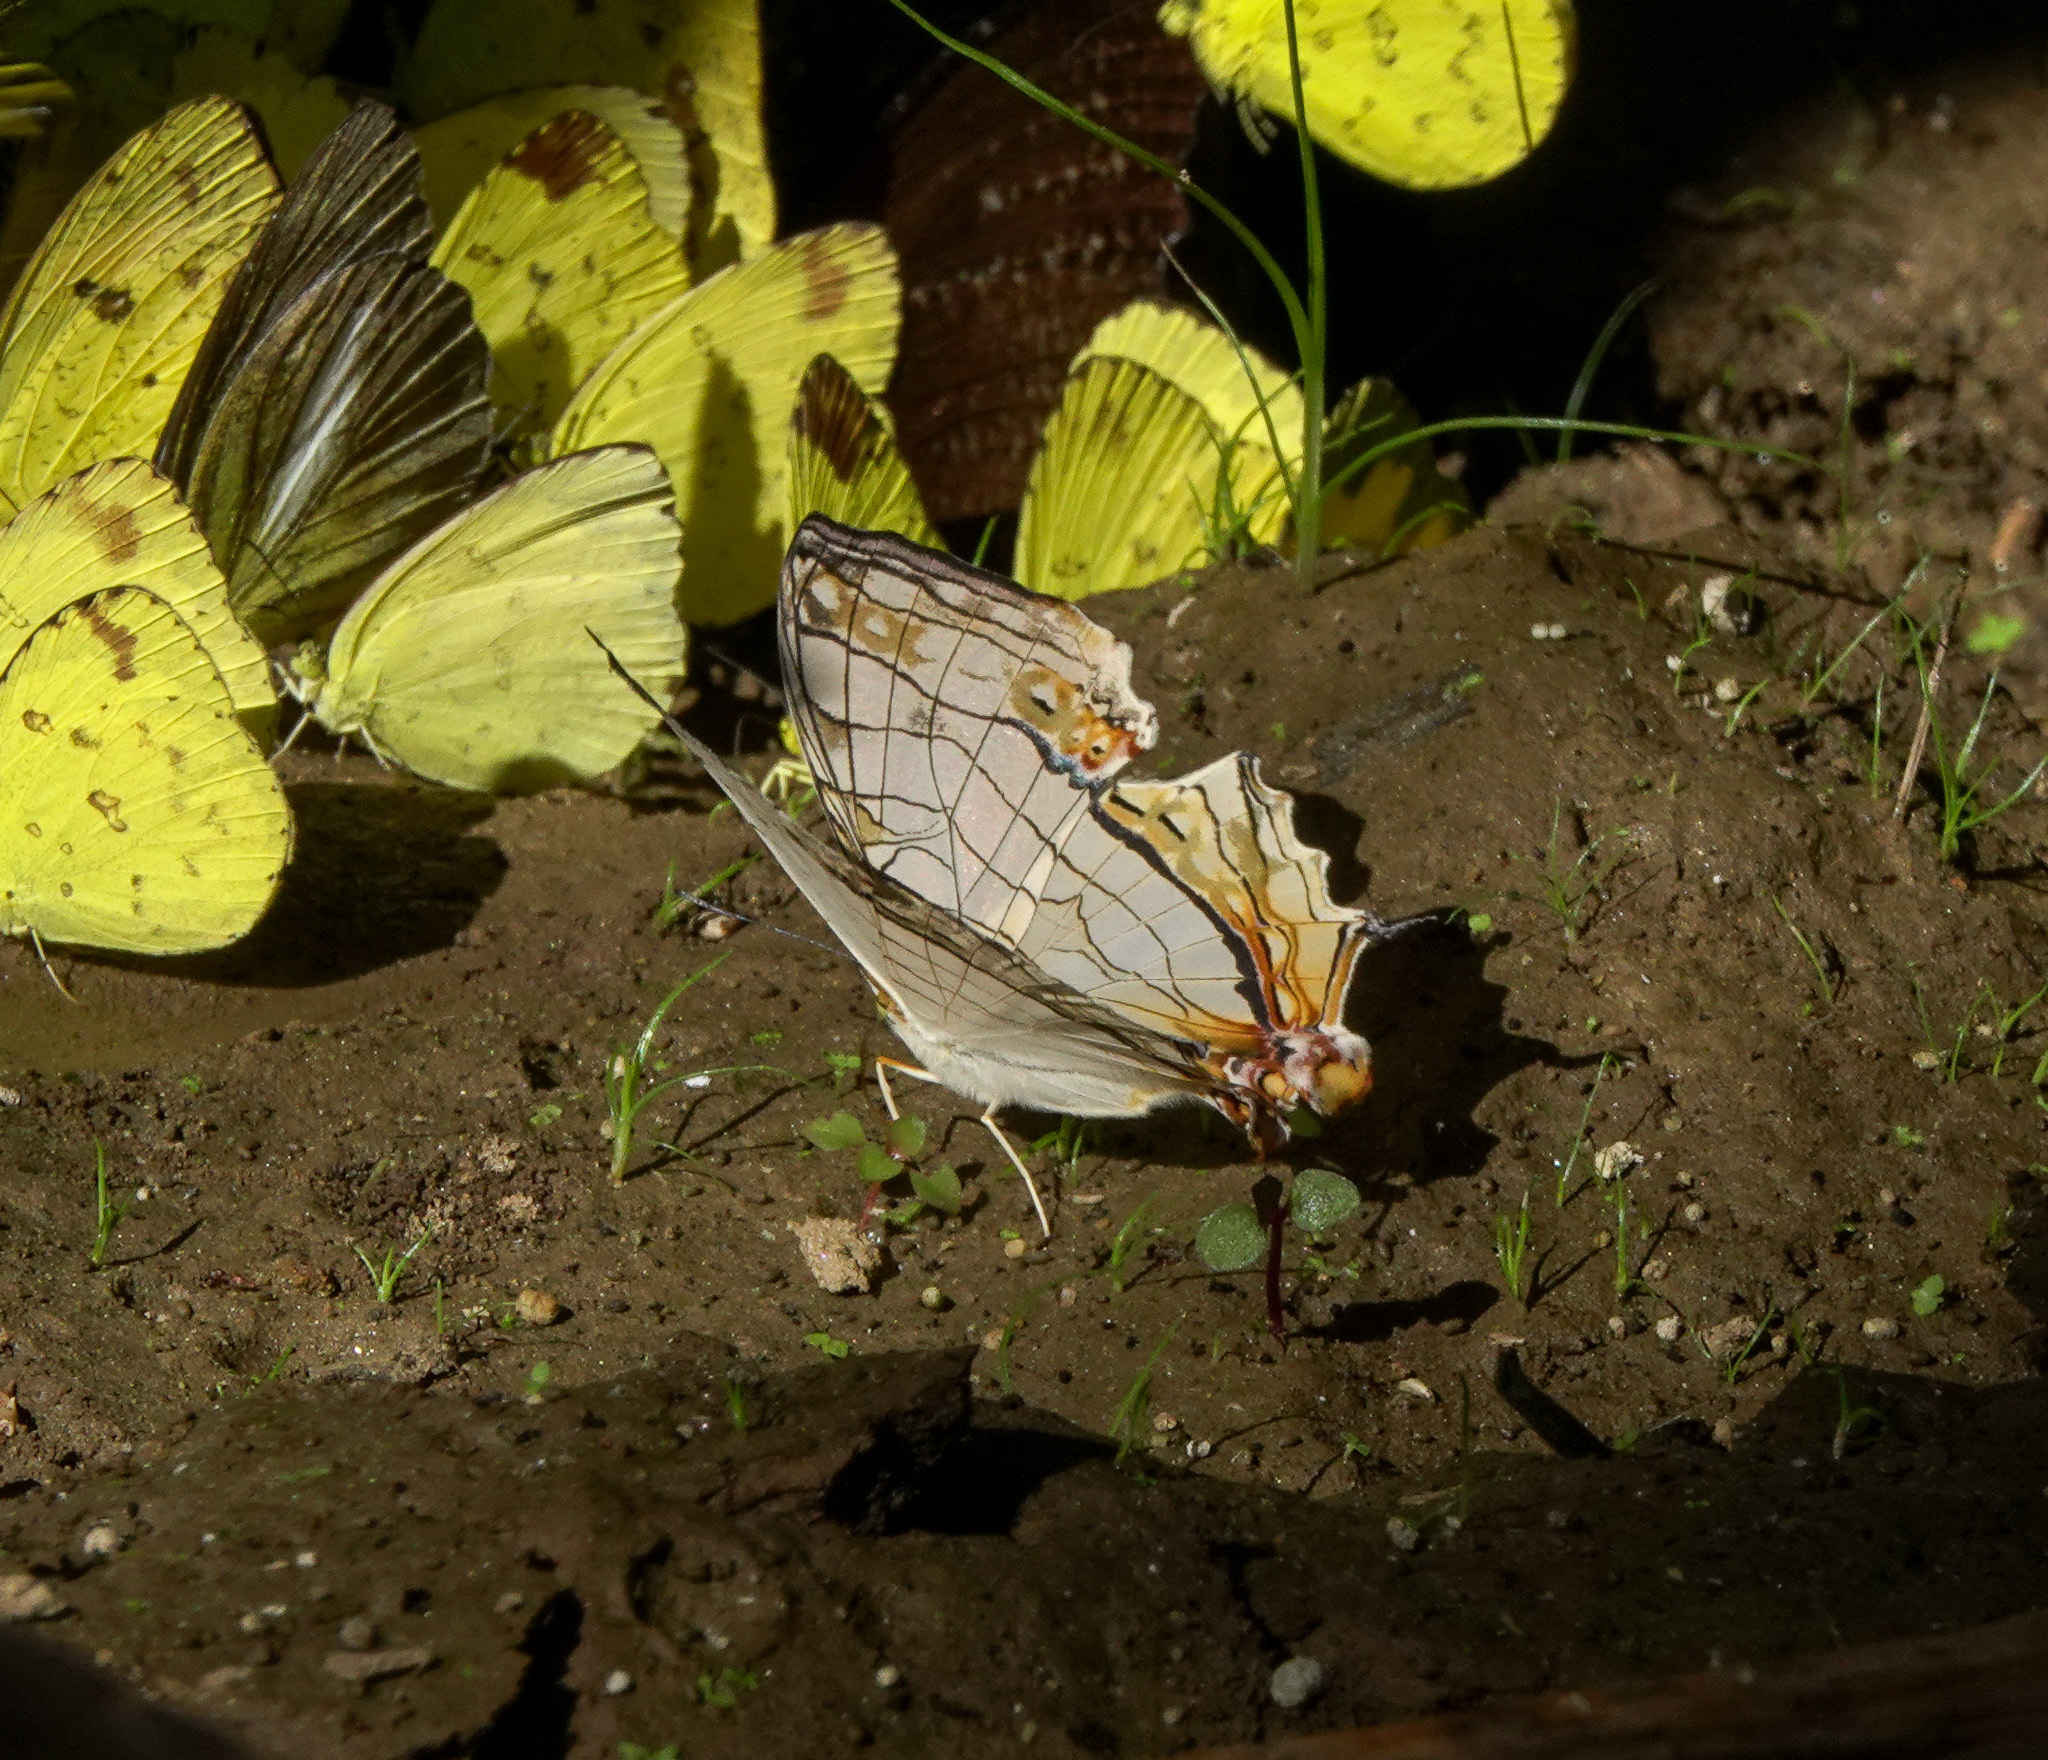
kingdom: Animalia
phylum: Arthropoda
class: Insecta
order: Lepidoptera
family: Nymphalidae
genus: Cyrestis
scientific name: Cyrestis thyodamas
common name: Common mapwing
